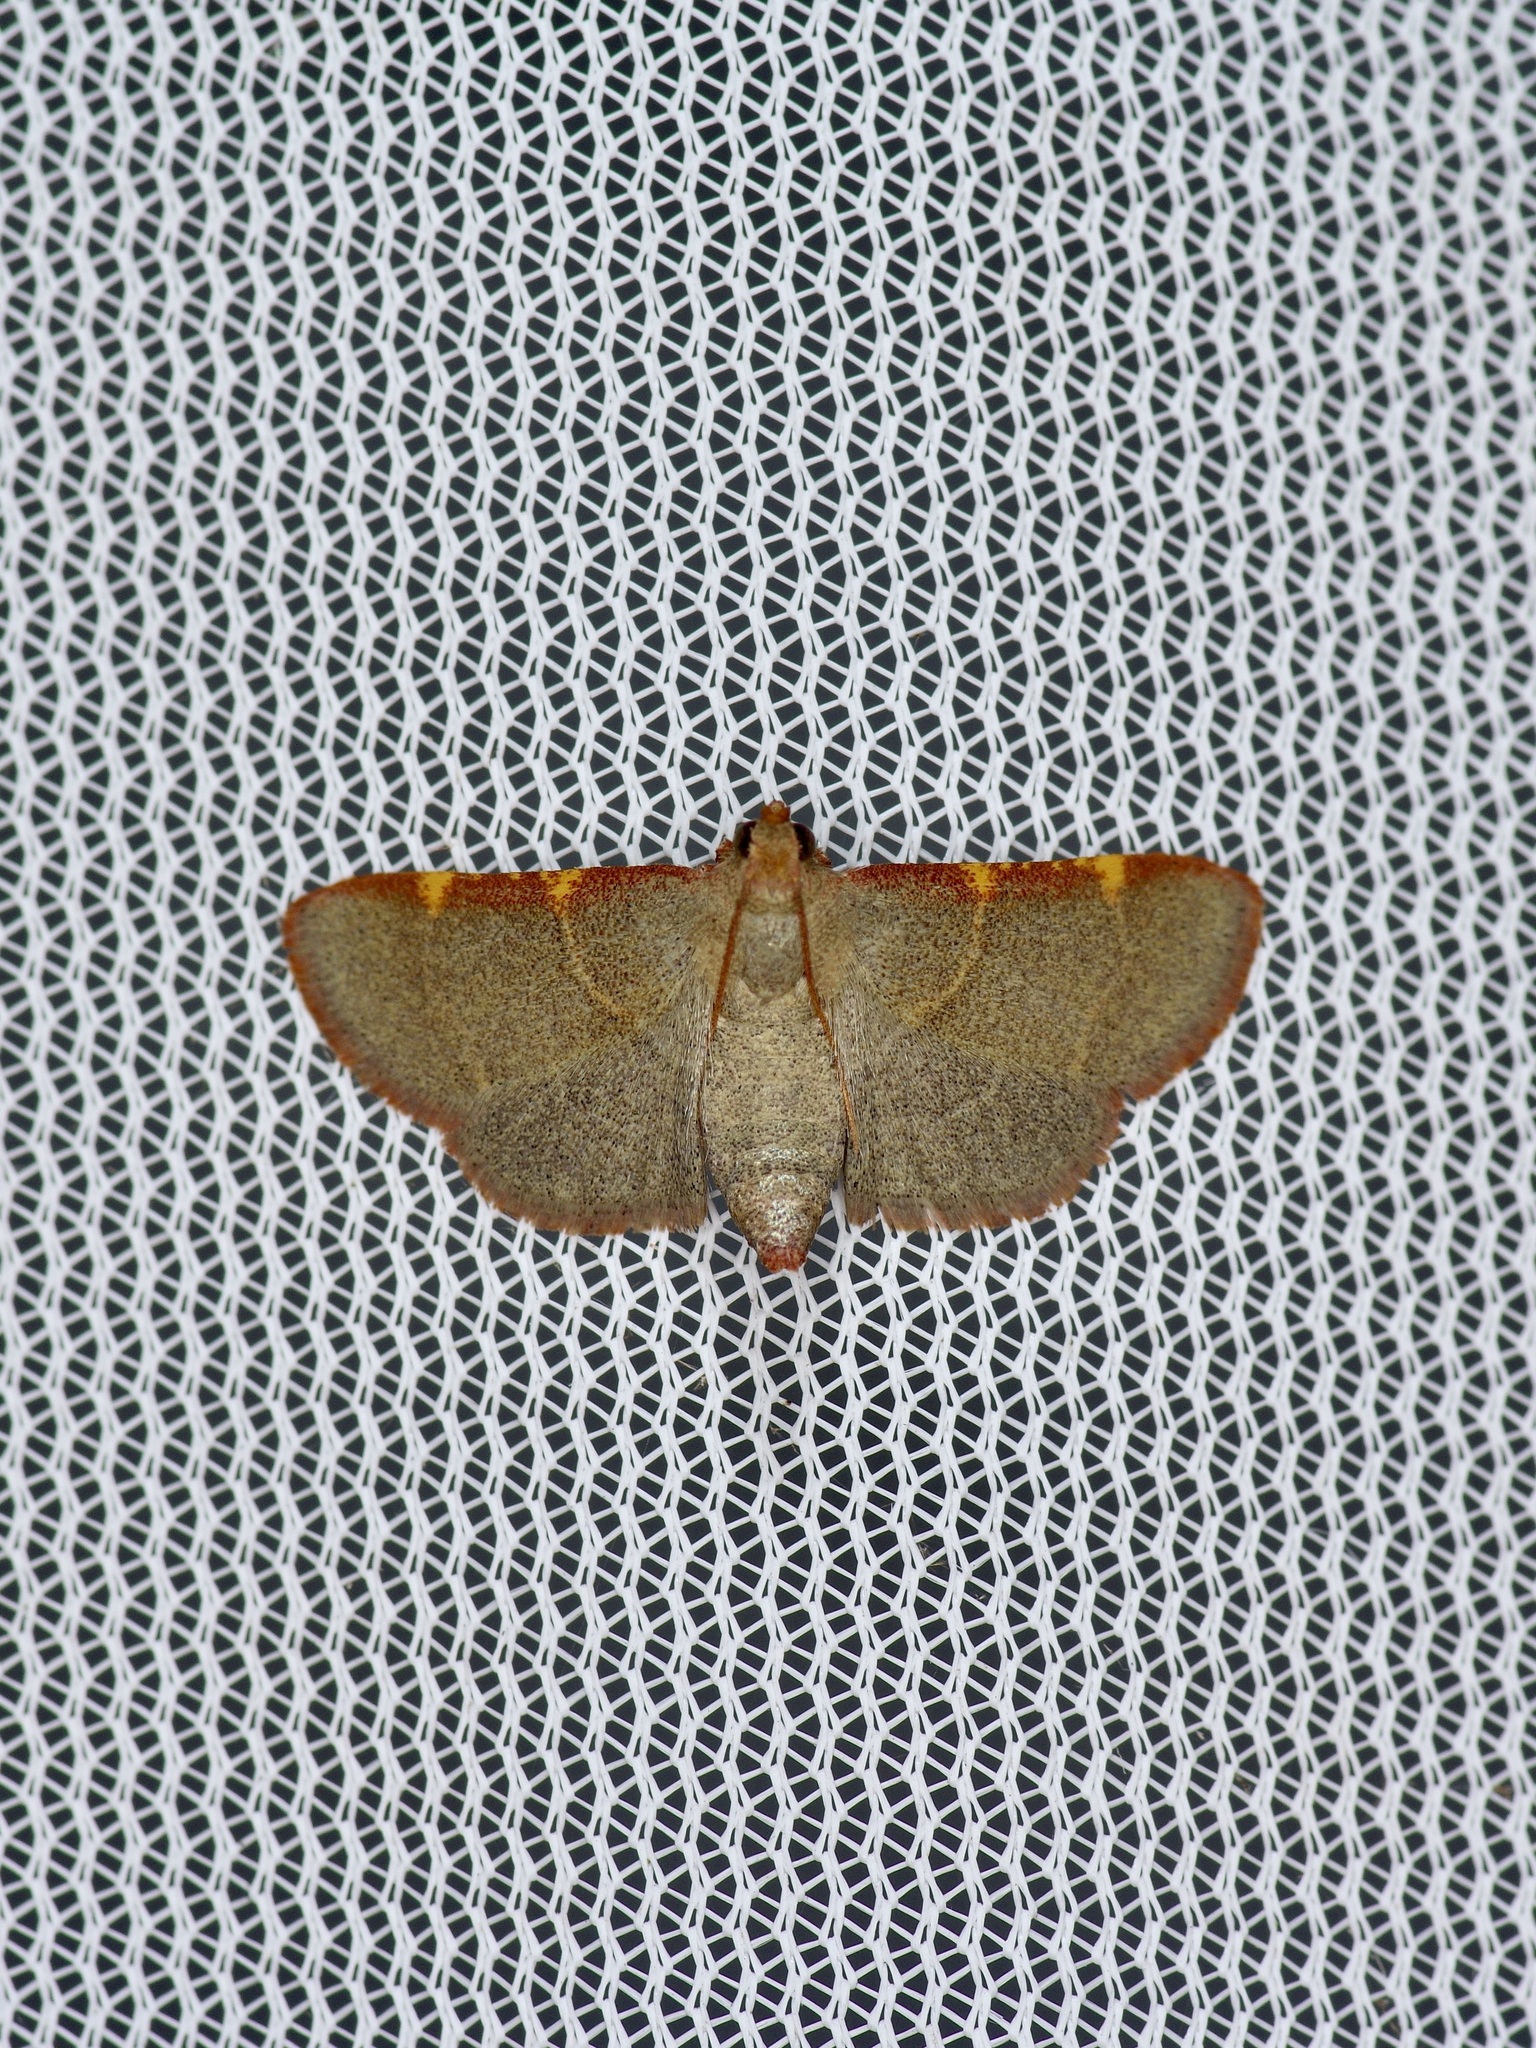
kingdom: Animalia
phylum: Arthropoda
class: Insecta
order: Lepidoptera
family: Pyralidae
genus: Hypsopygia
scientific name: Hypsopygia binodulalis
